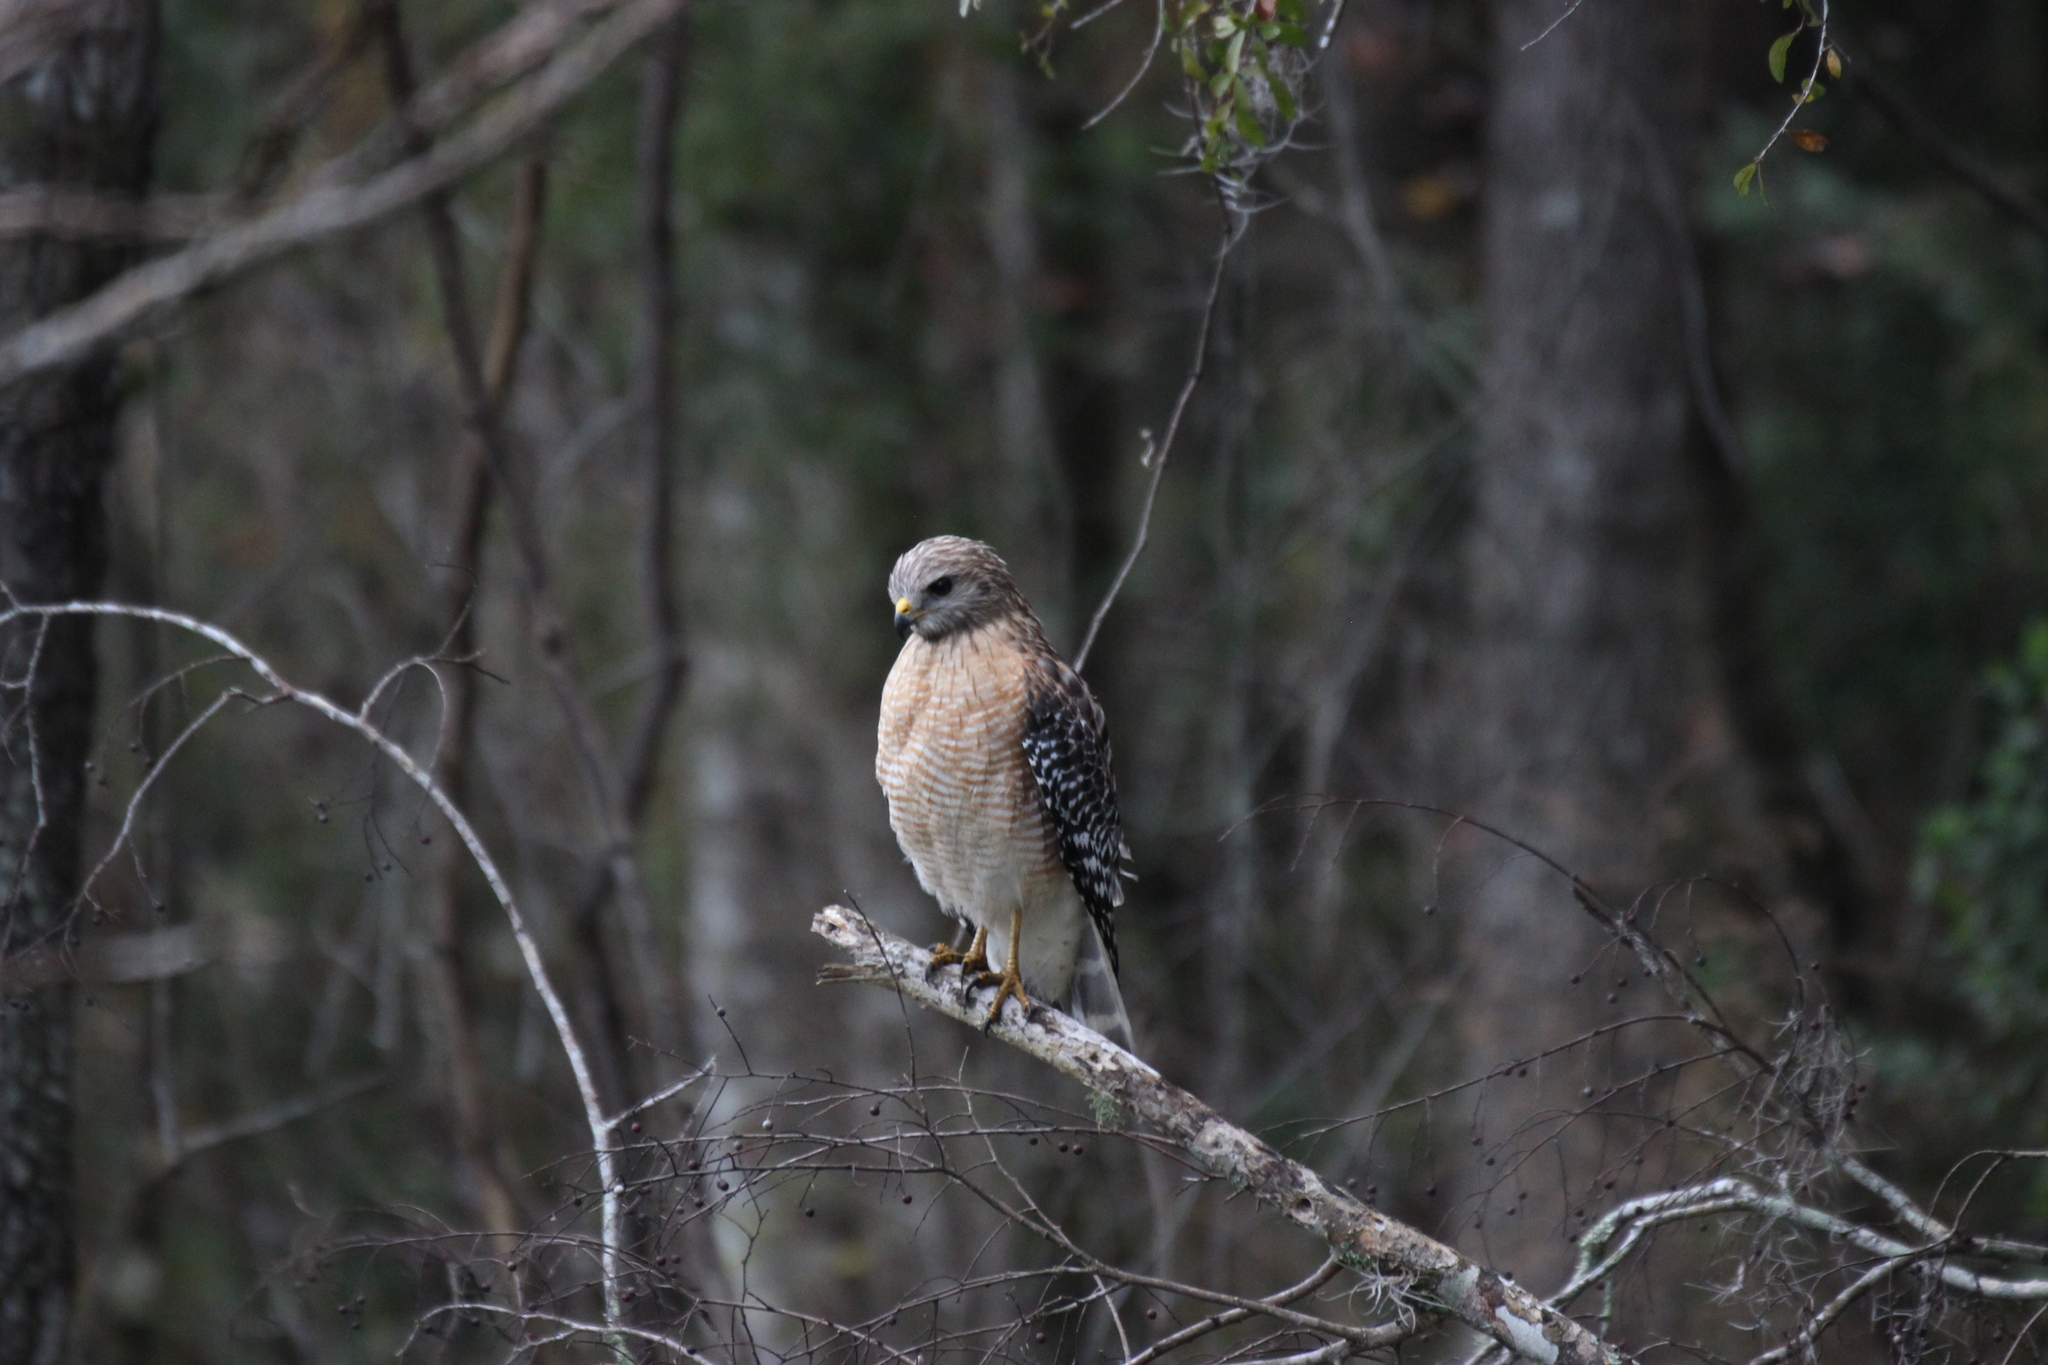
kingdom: Animalia
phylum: Chordata
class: Aves
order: Accipitriformes
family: Accipitridae
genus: Buteo
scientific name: Buteo lineatus
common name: Red-shouldered hawk
